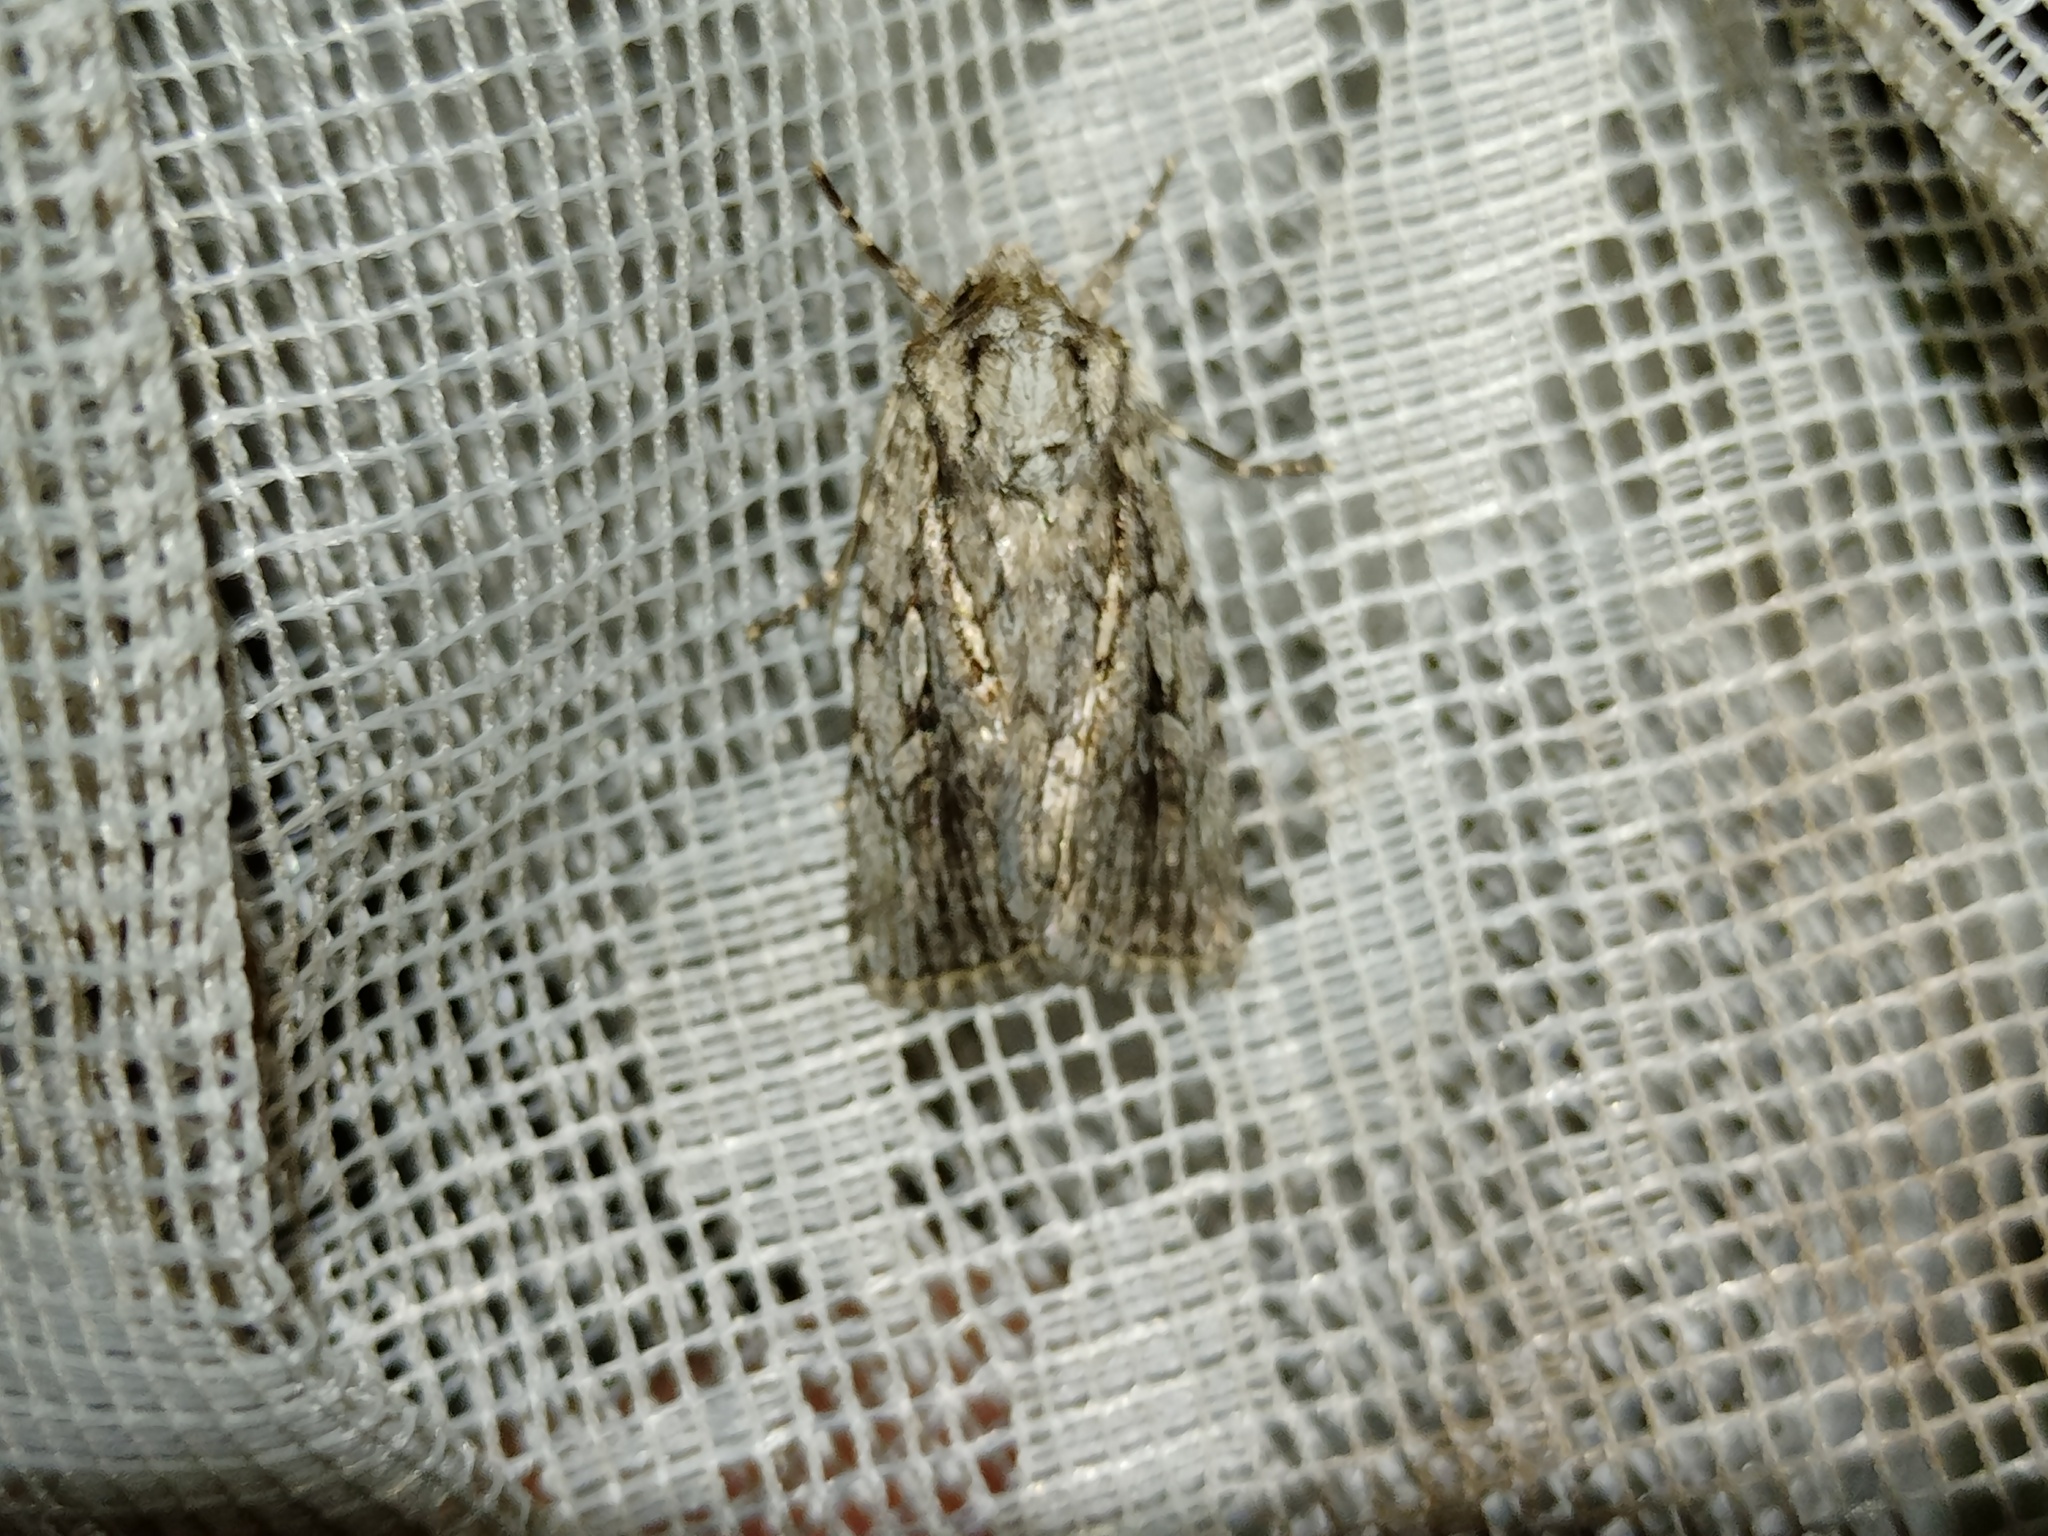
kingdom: Animalia
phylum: Arthropoda
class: Insecta
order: Lepidoptera
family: Noctuidae
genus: Yigoga
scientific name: Yigoga signifera
